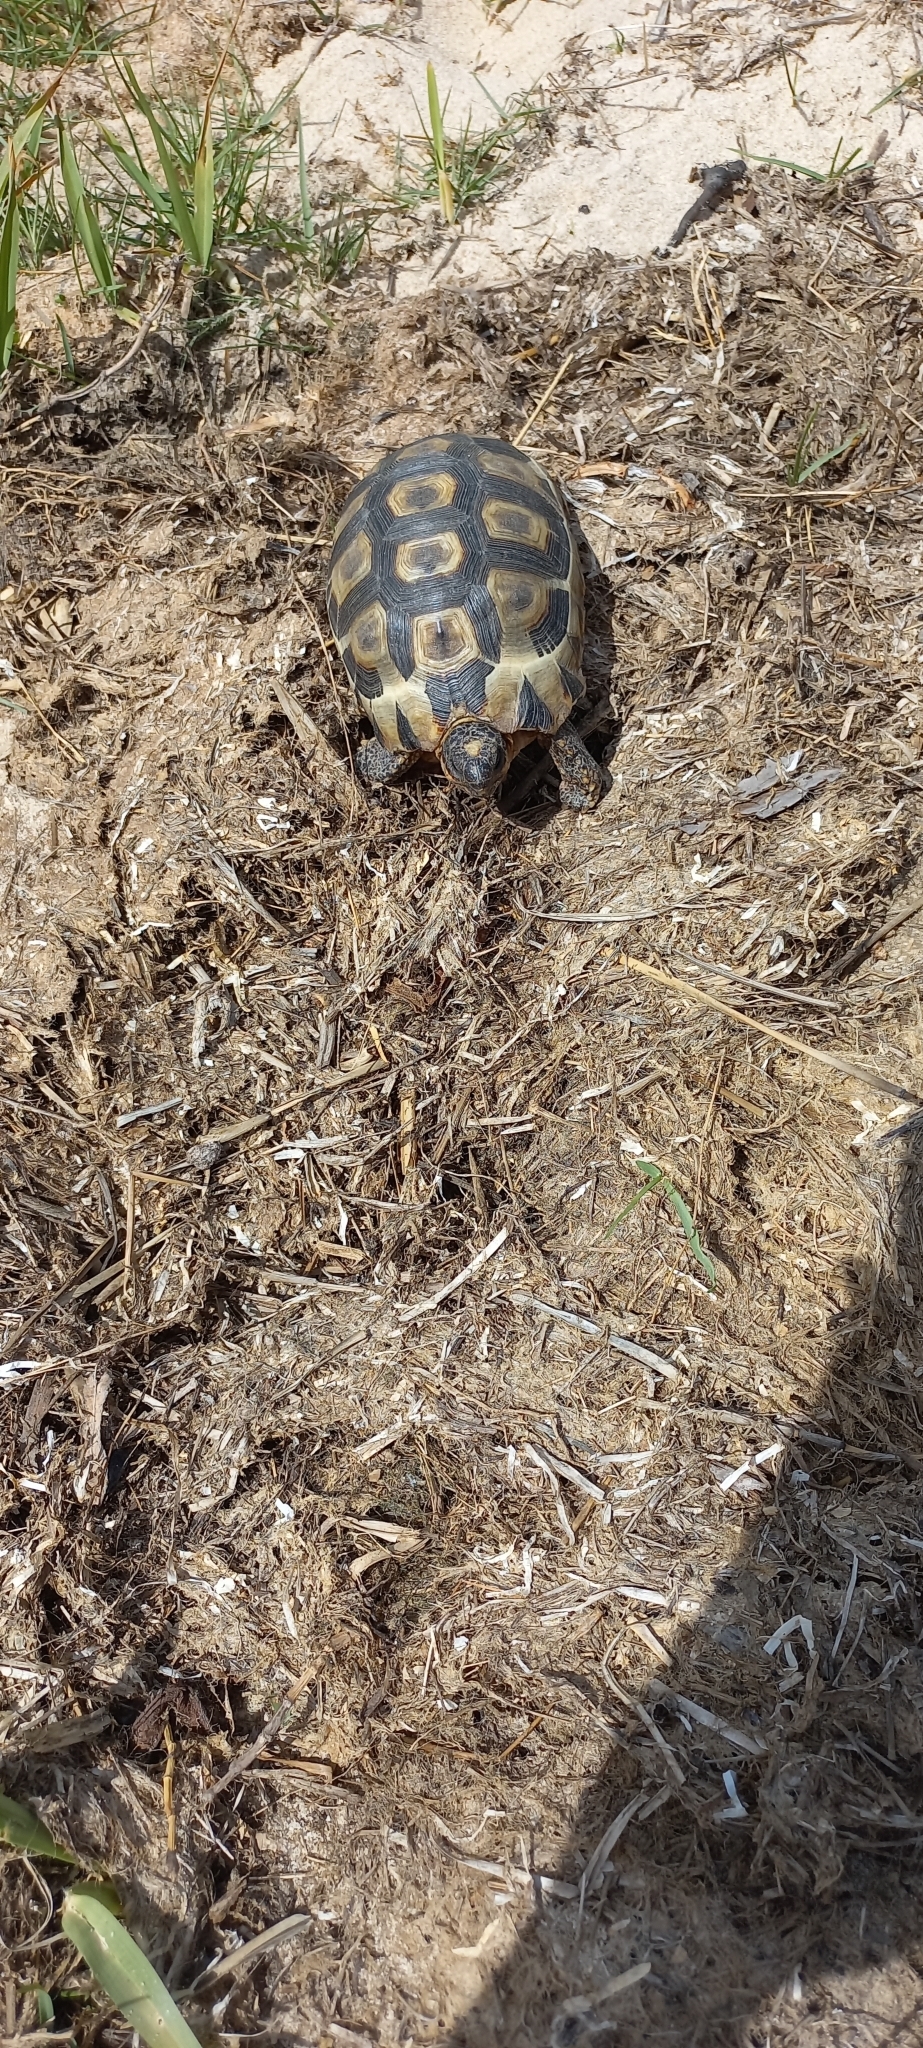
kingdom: Animalia
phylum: Chordata
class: Testudines
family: Testudinidae
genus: Chersina
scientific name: Chersina angulata
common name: South african bowsprit tortoise
